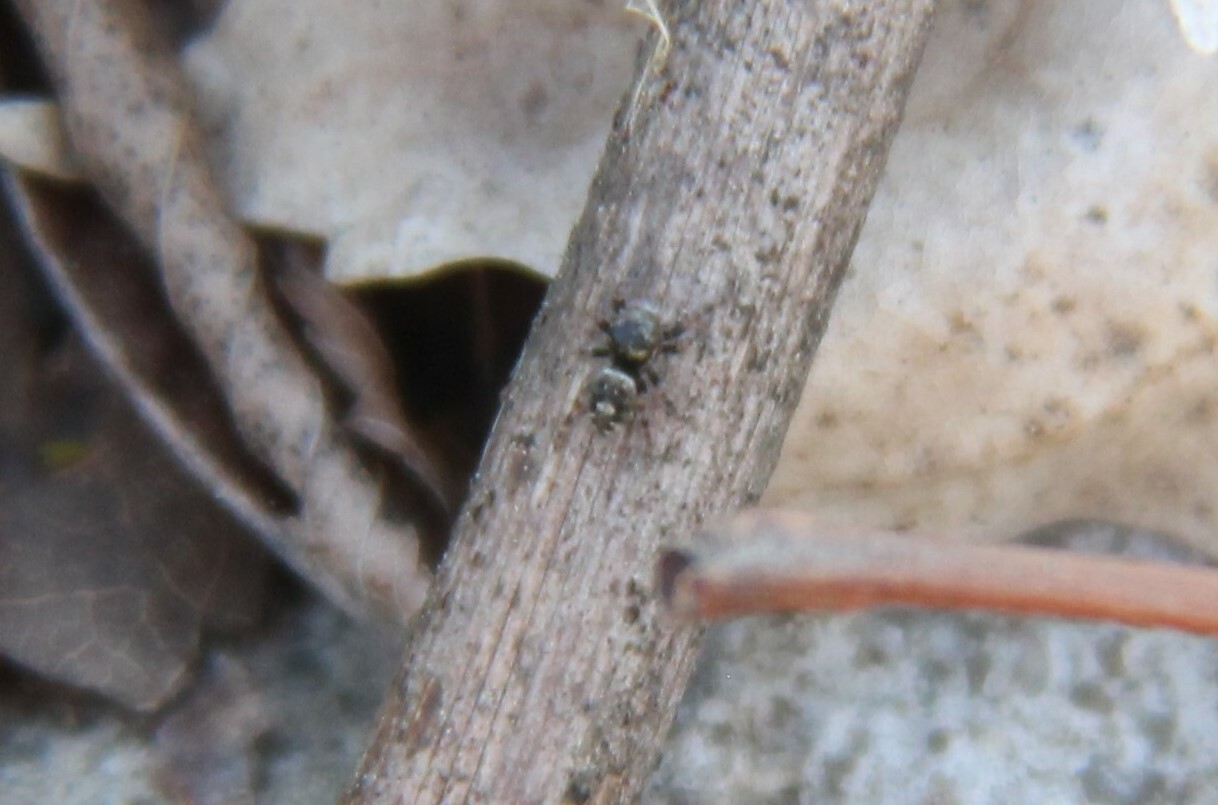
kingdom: Animalia
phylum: Arthropoda
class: Arachnida
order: Araneae
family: Salticidae
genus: Phidippus
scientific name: Phidippus putnami
